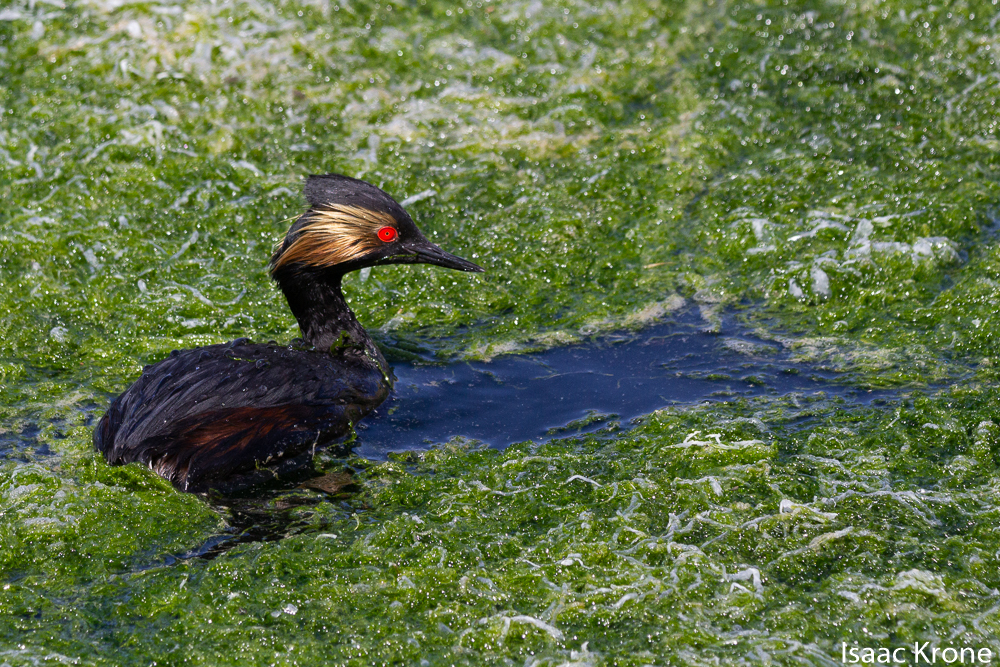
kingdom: Animalia
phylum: Chordata
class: Aves
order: Podicipediformes
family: Podicipedidae
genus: Podiceps
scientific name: Podiceps nigricollis
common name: Black-necked grebe
